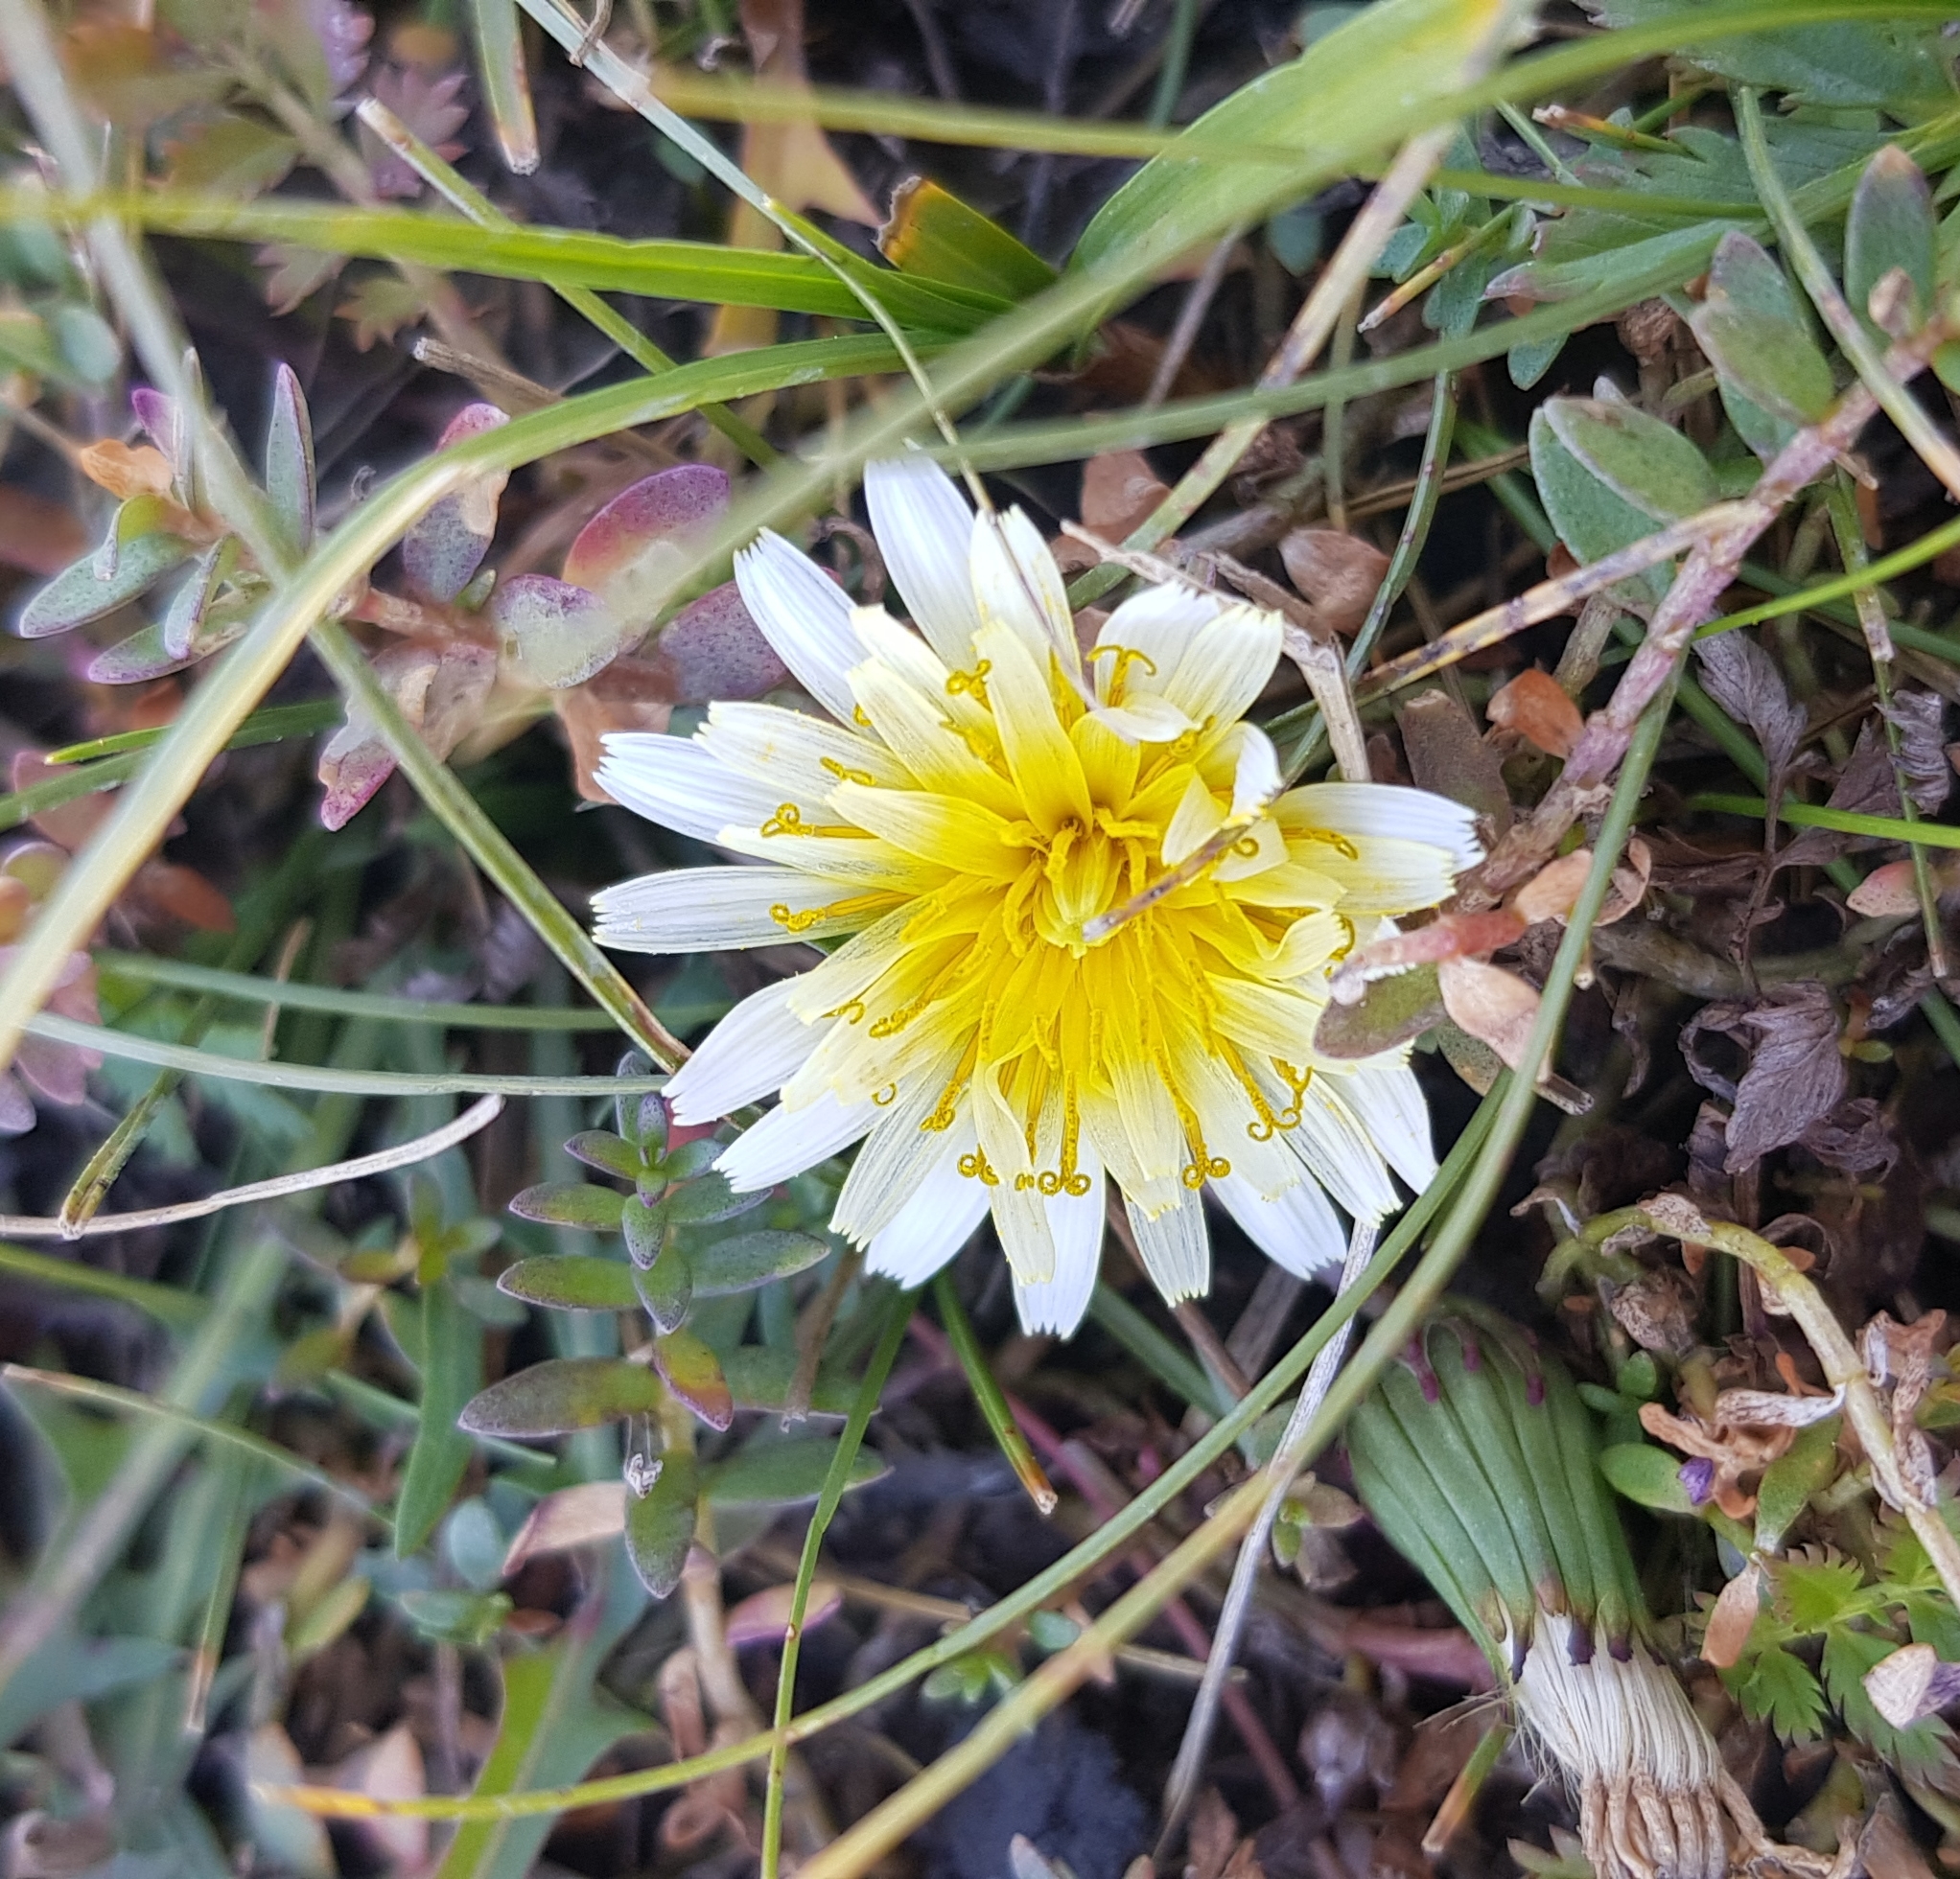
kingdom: Plantae
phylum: Tracheophyta
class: Magnoliopsida
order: Asterales
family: Asteraceae
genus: Taraxacum
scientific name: Taraxacum coreanum
